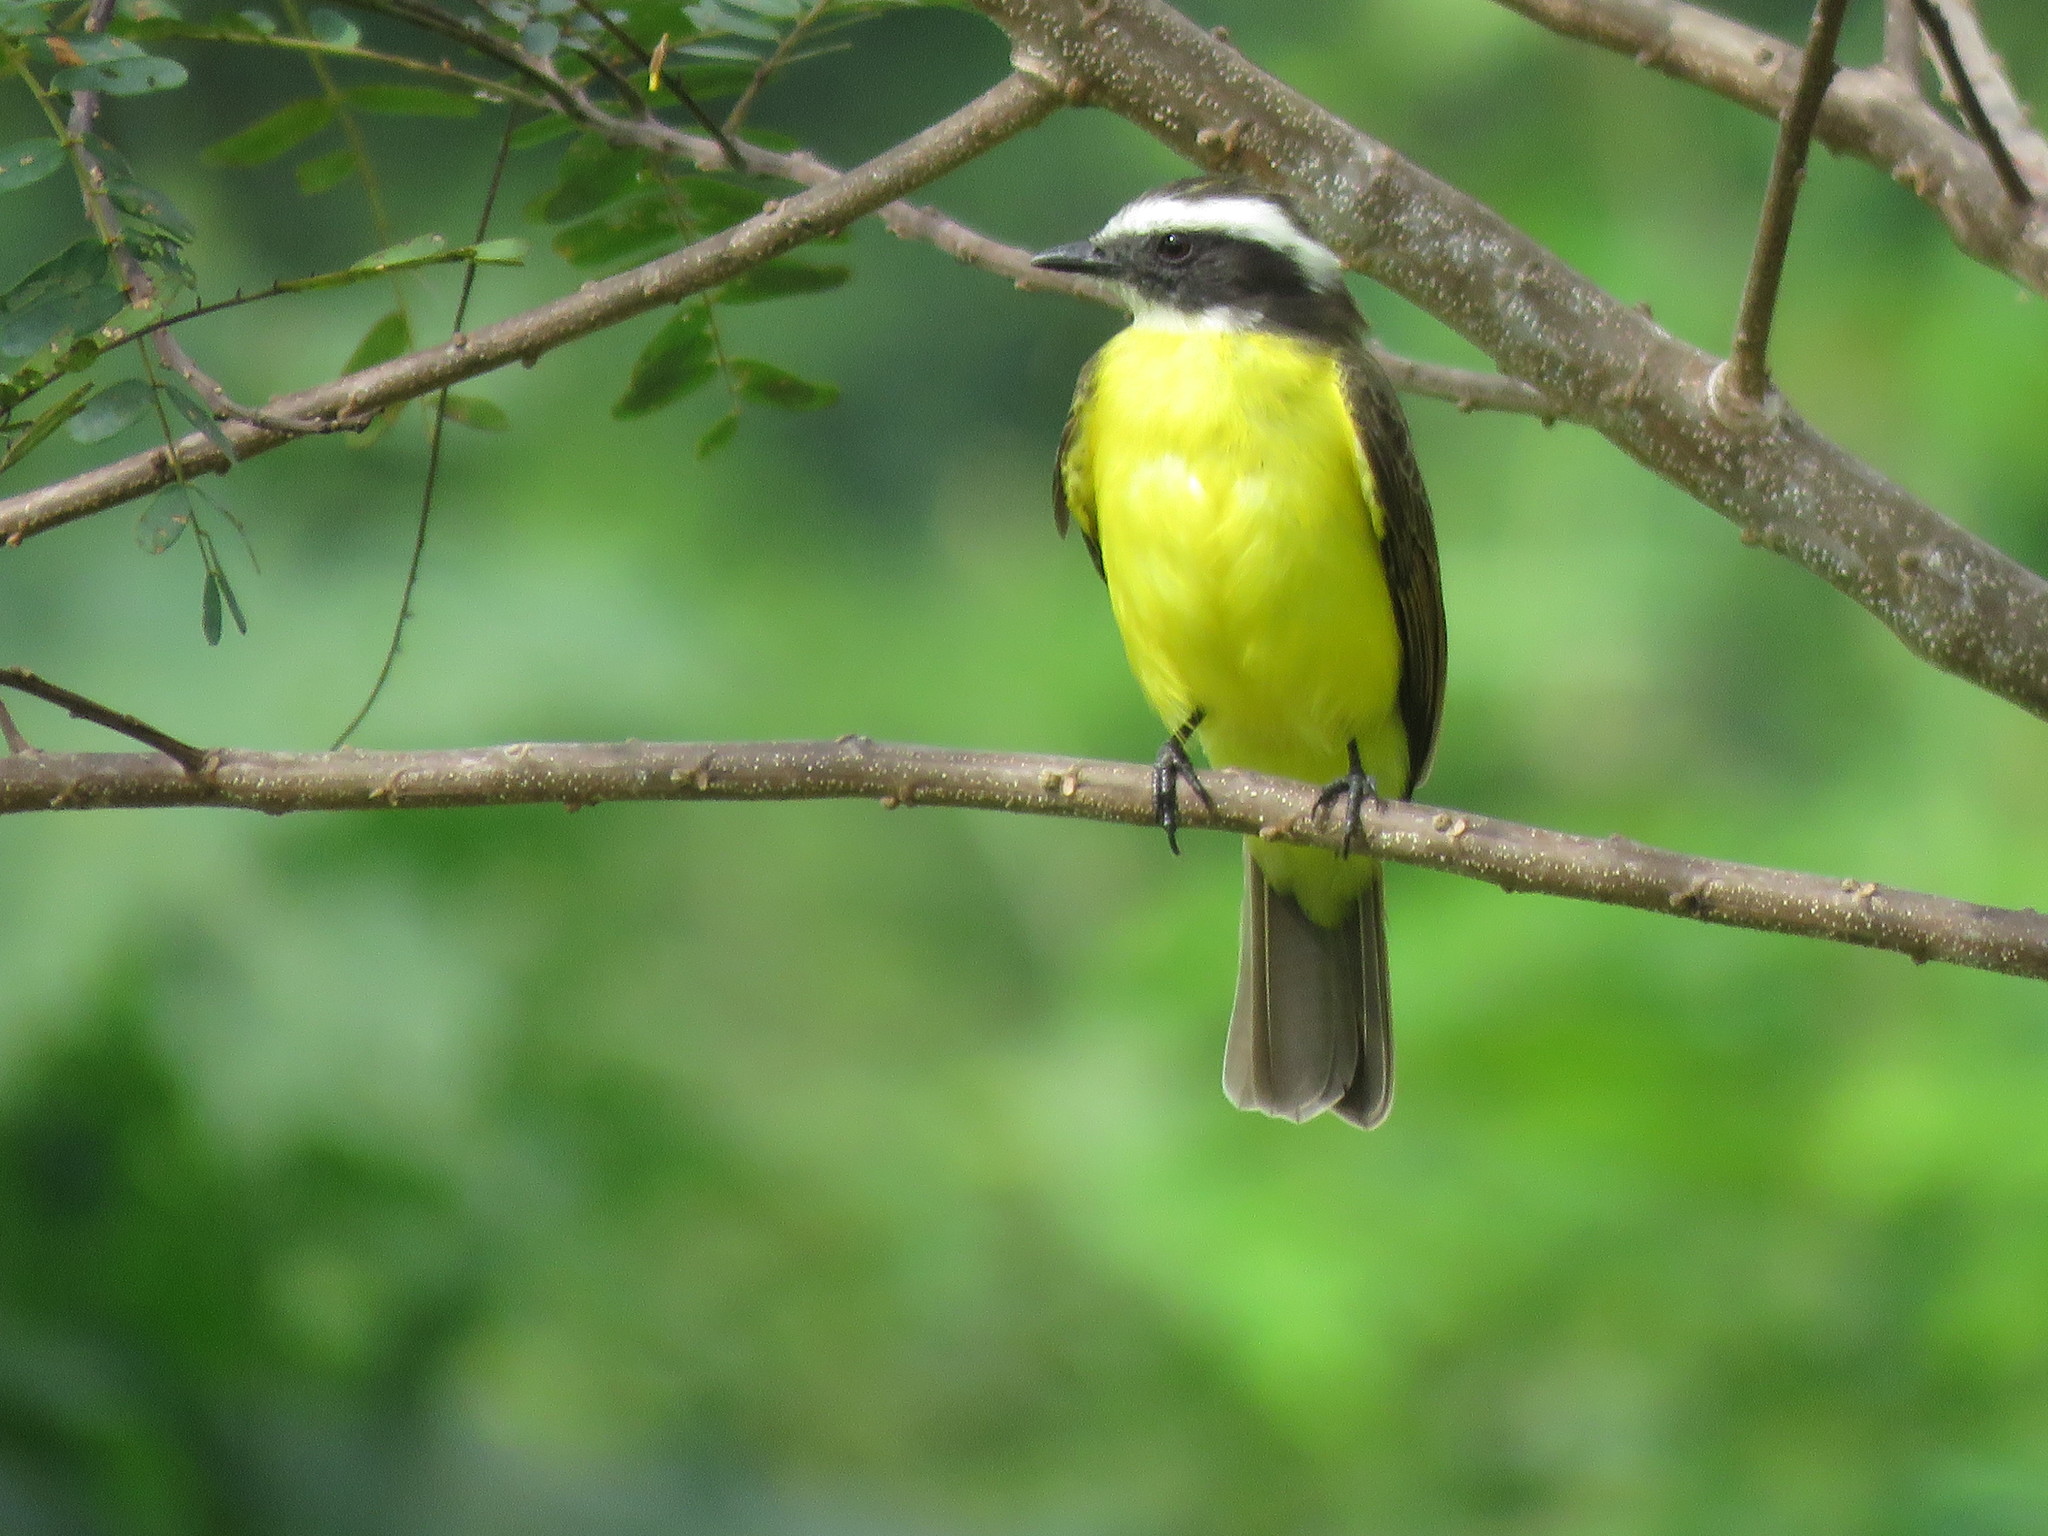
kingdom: Animalia
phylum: Chordata
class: Aves
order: Passeriformes
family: Tyrannidae
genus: Myiozetetes
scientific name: Myiozetetes cayanensis
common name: Rusty-margined flycatcher
